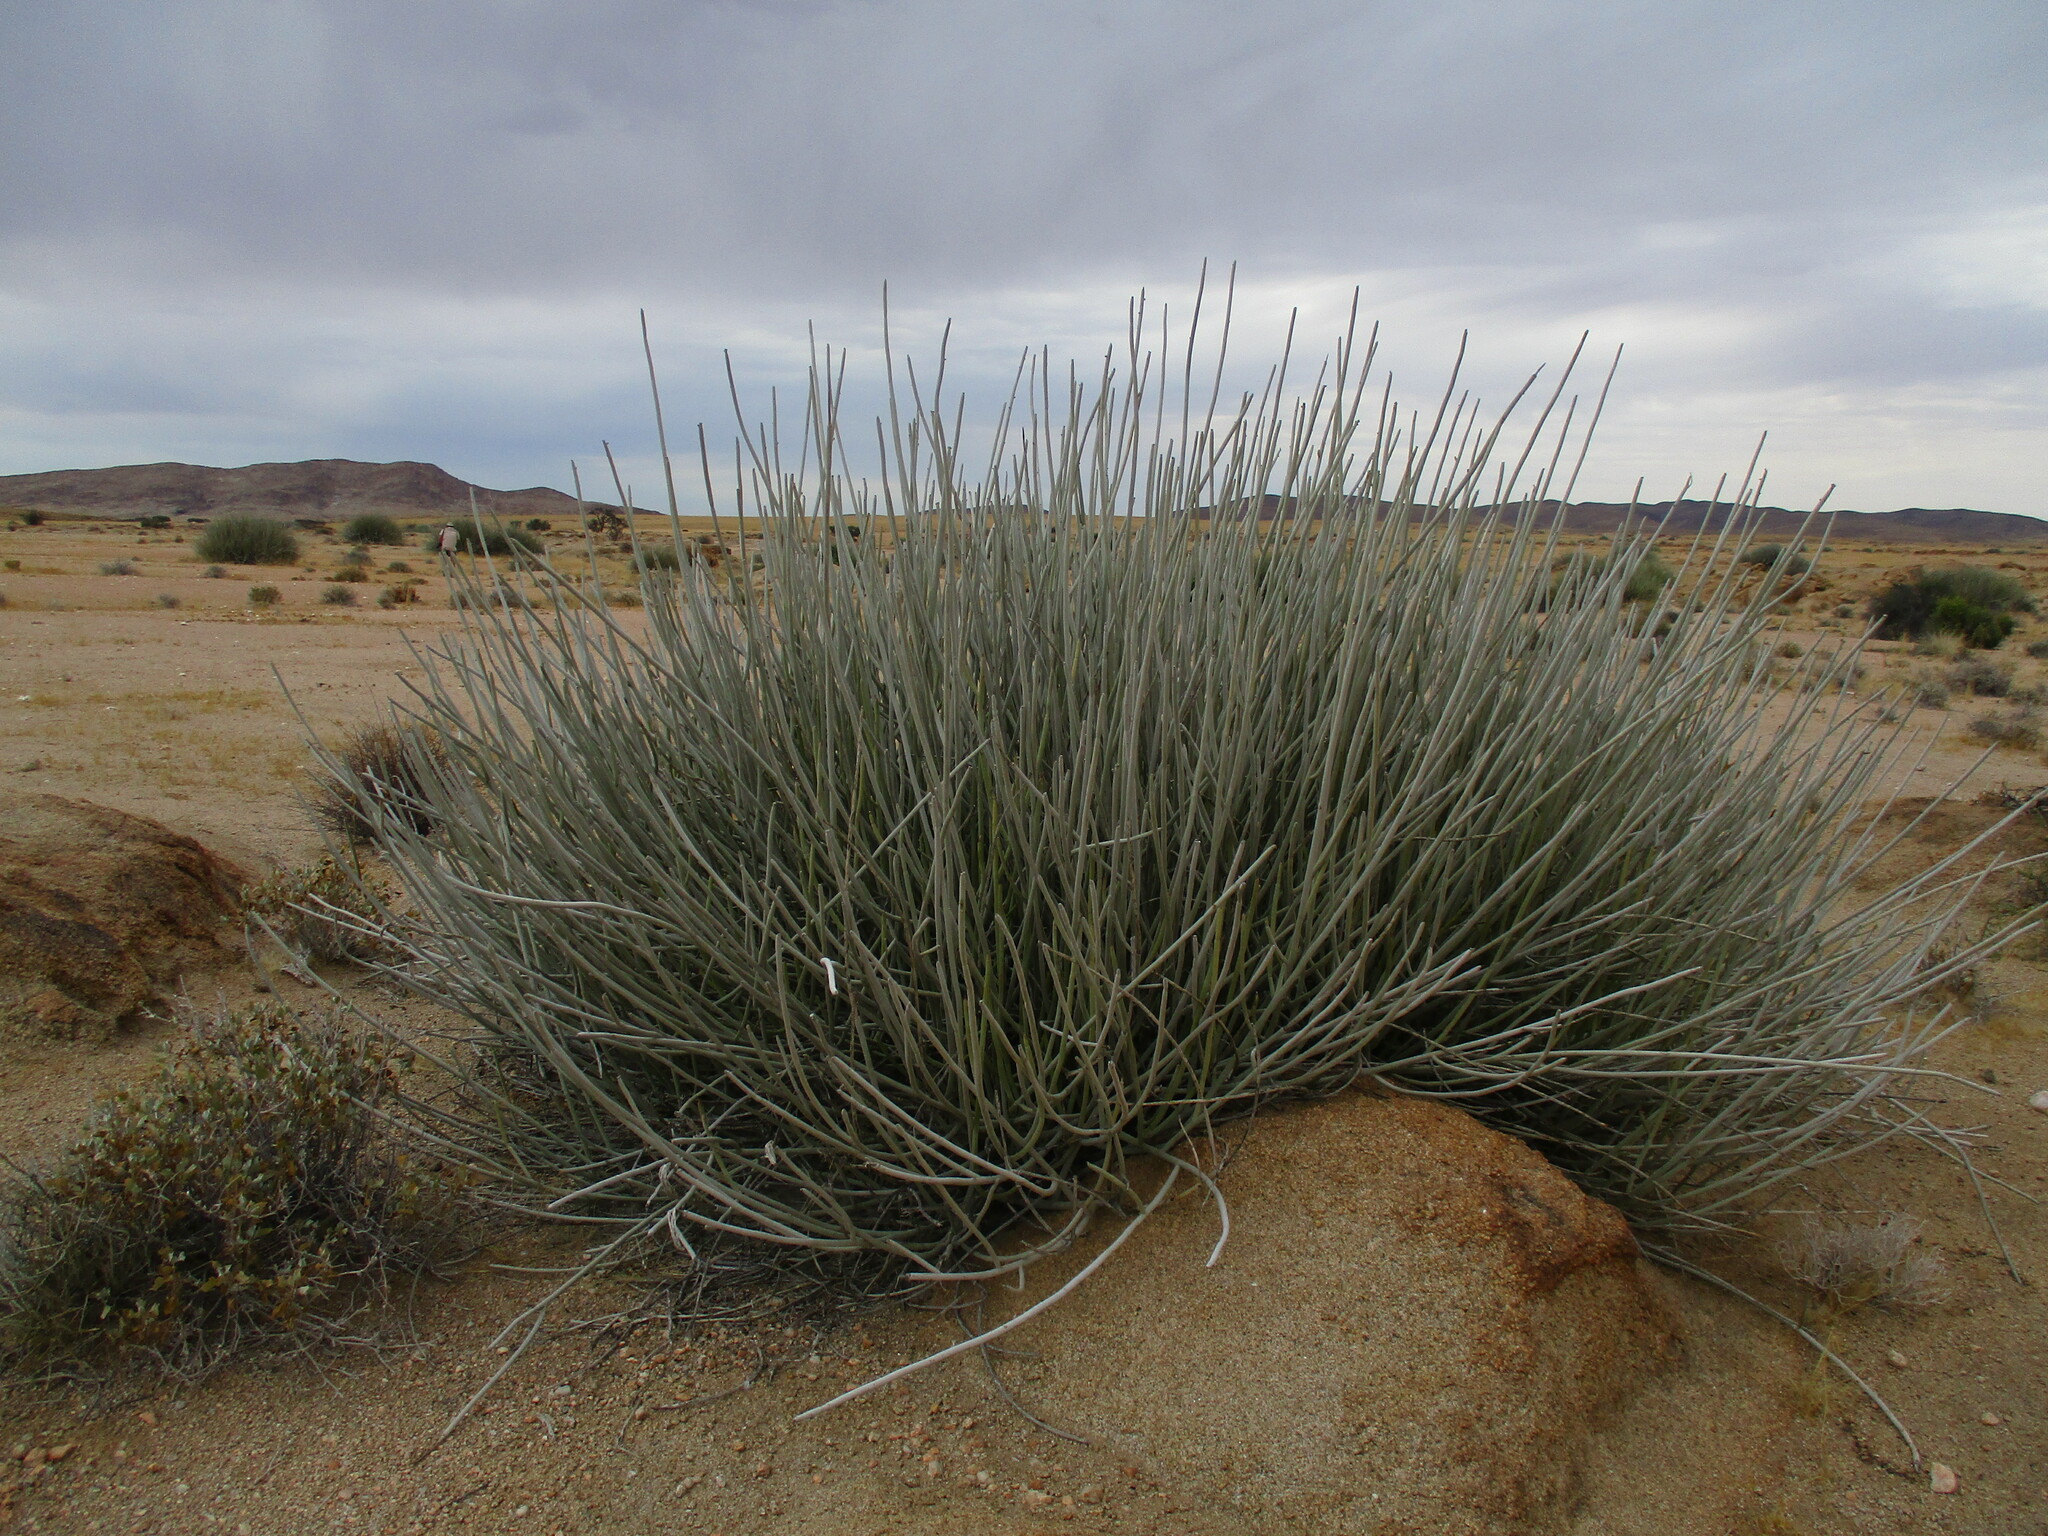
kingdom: Plantae
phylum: Tracheophyta
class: Magnoliopsida
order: Malpighiales
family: Euphorbiaceae
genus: Euphorbia
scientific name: Euphorbia damarana
